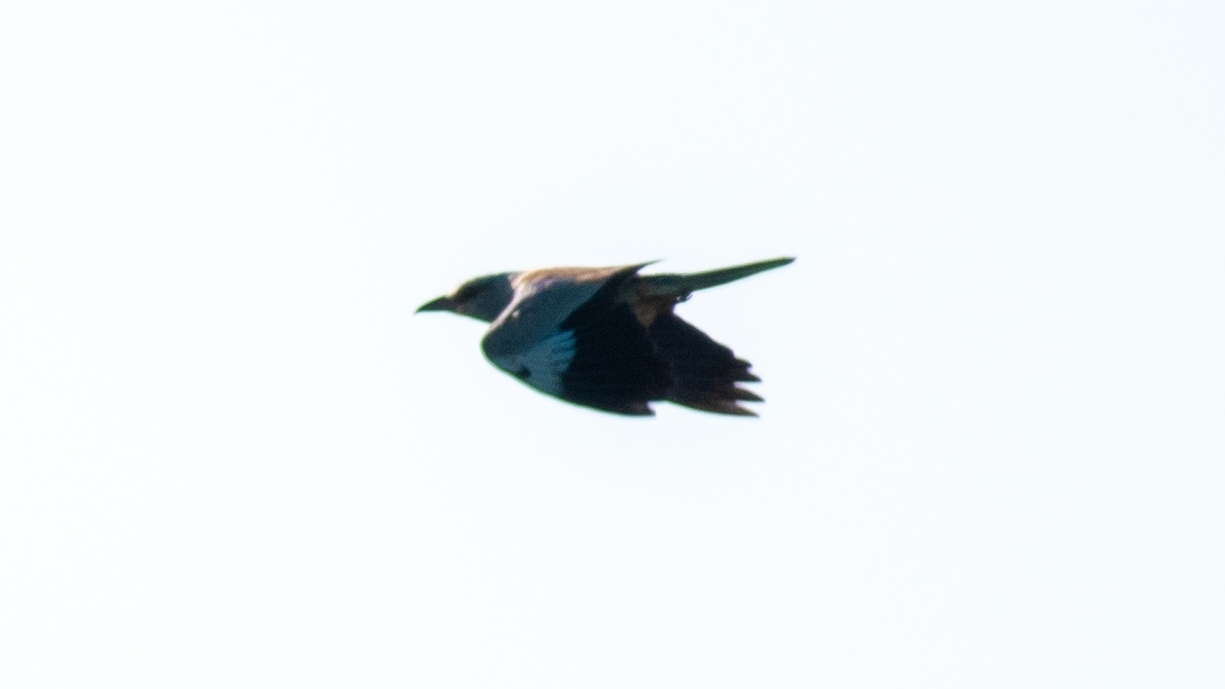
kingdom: Animalia
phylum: Chordata
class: Aves
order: Coraciiformes
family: Coraciidae
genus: Coracias
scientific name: Coracias garrulus
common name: European roller
